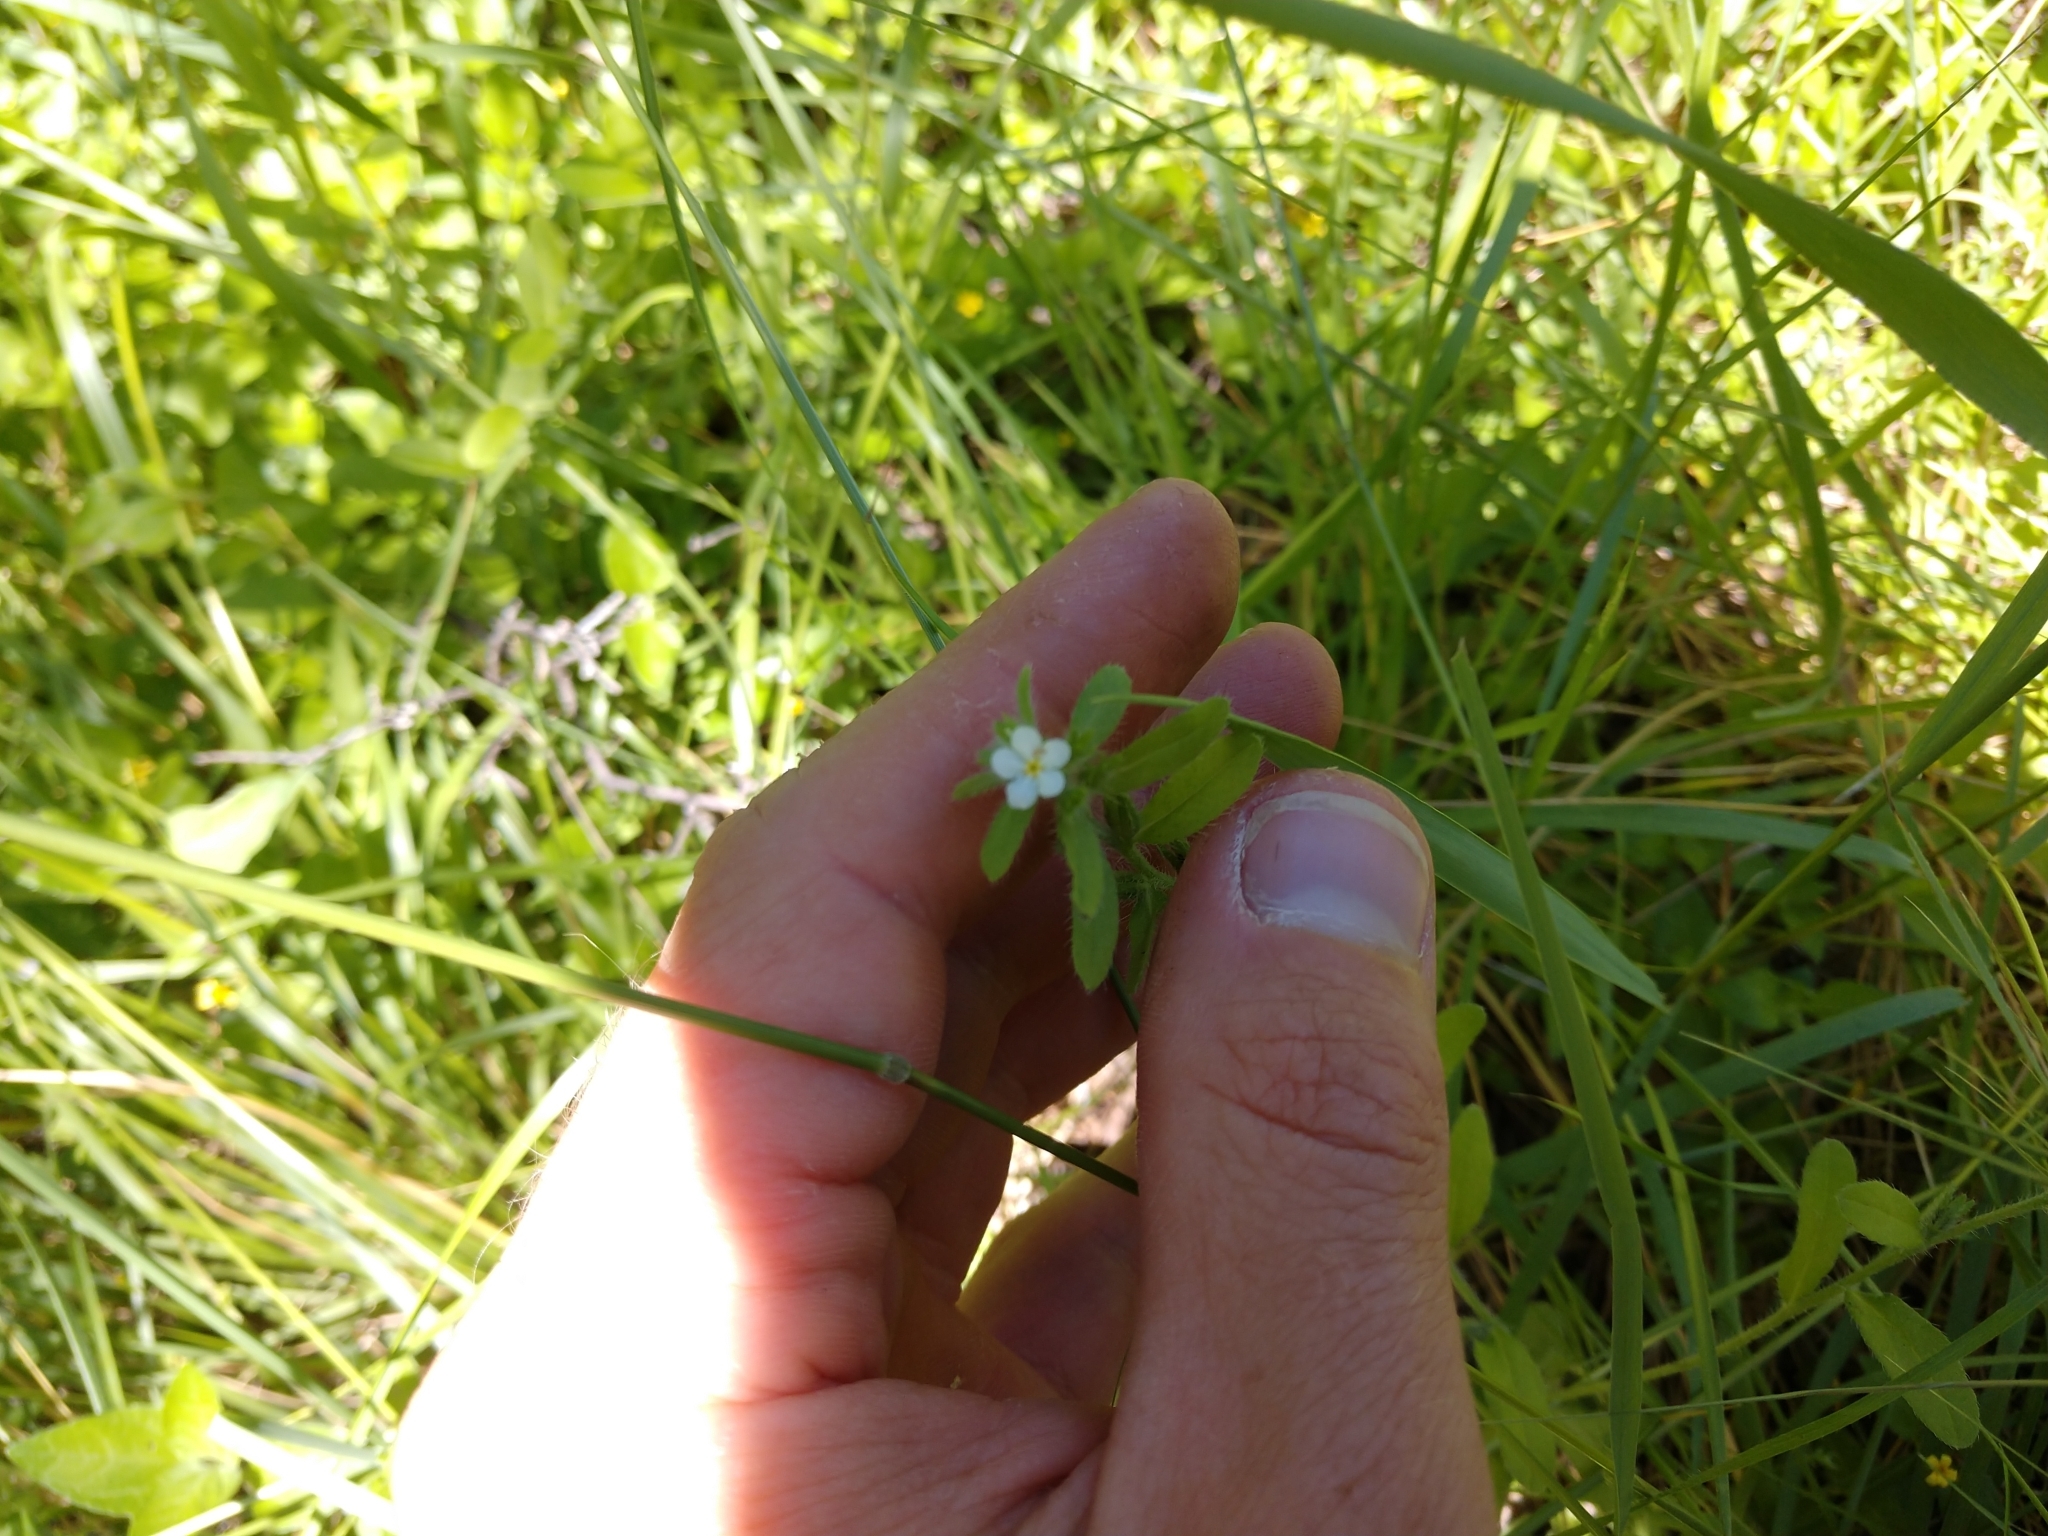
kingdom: Plantae
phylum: Tracheophyta
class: Magnoliopsida
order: Boraginales
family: Boraginaceae
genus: Lithospermum
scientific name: Lithospermum matamorense
